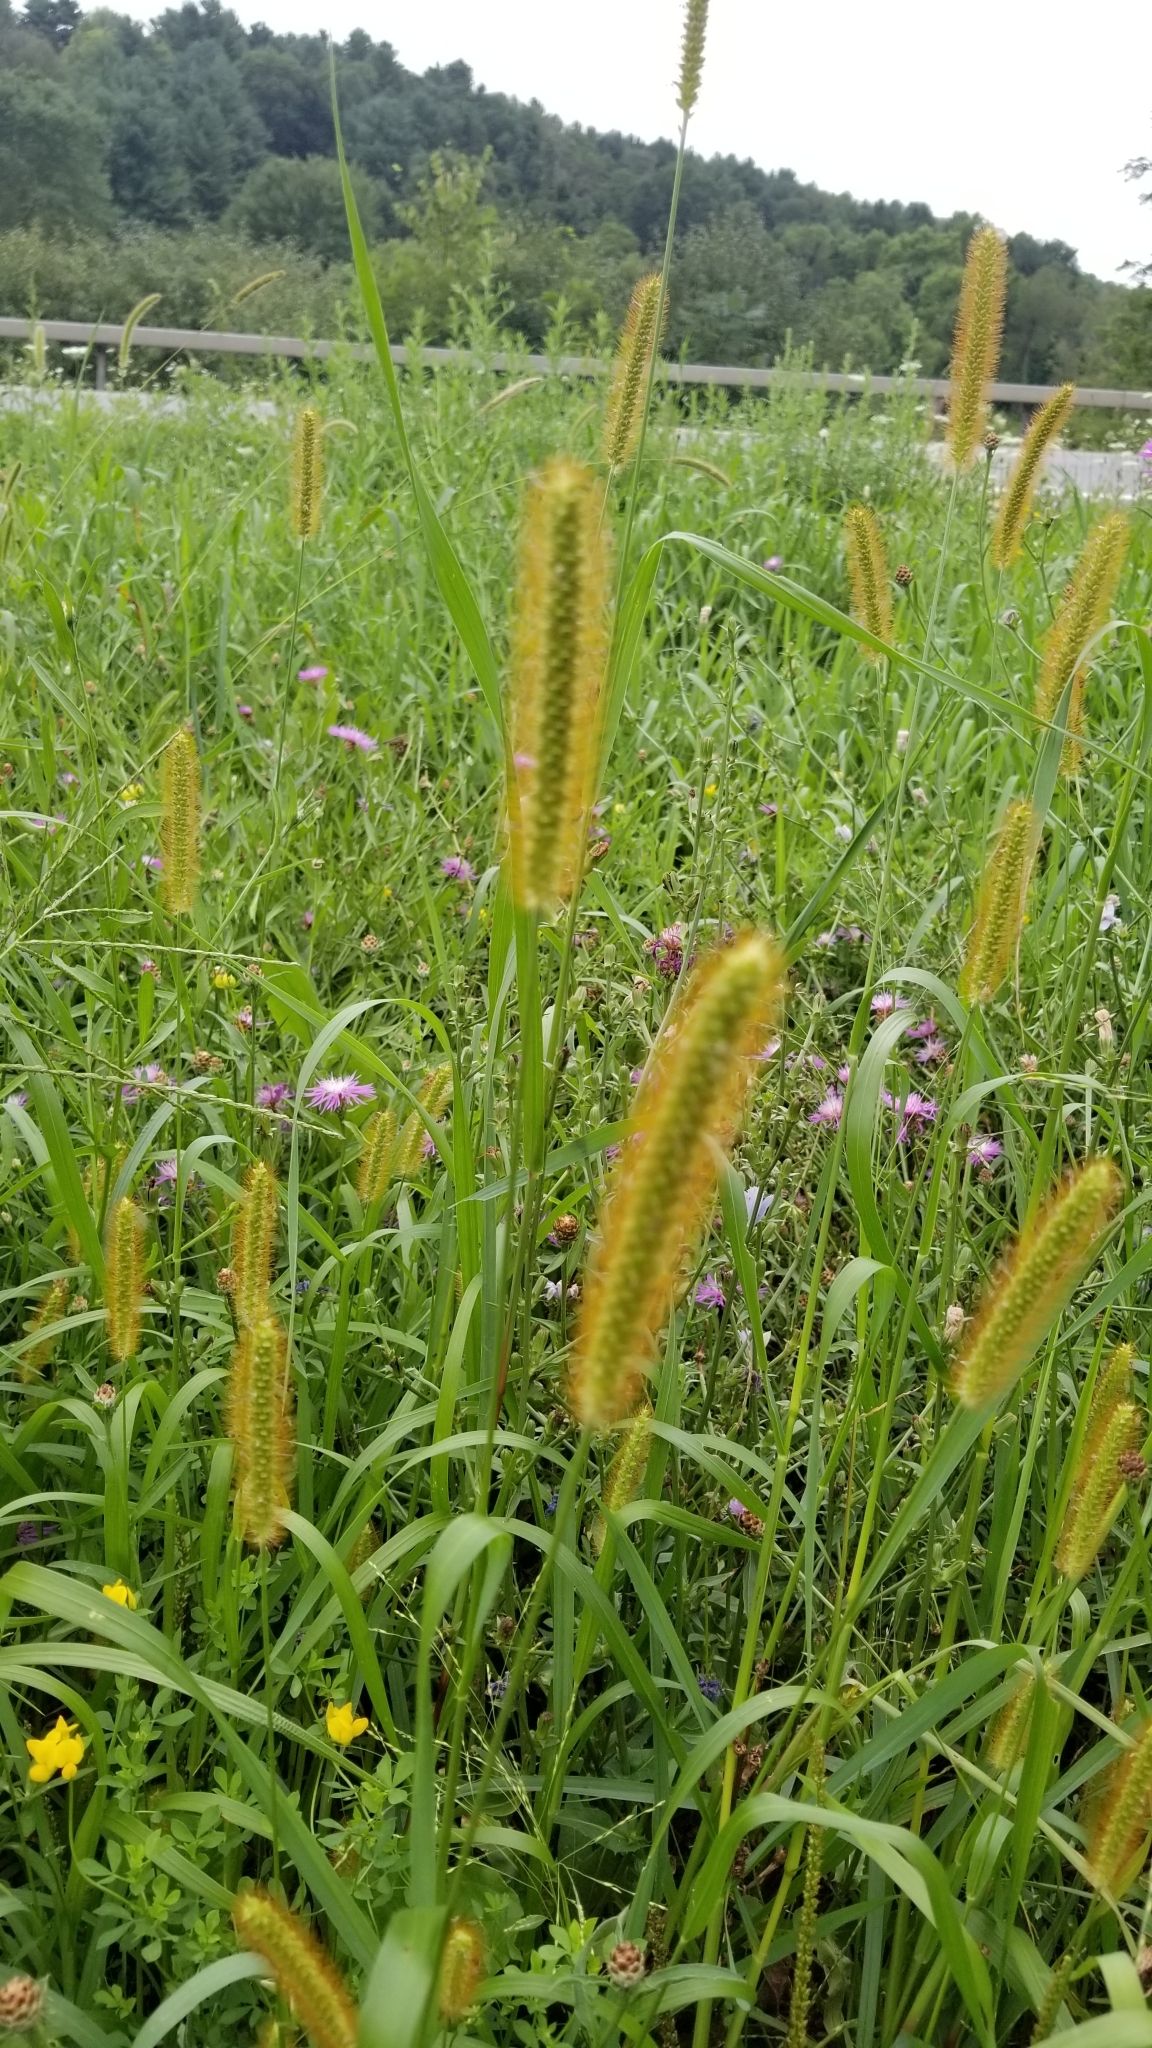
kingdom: Plantae
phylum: Tracheophyta
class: Liliopsida
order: Poales
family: Poaceae
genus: Setaria
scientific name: Setaria pumila
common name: Yellow bristle-grass
